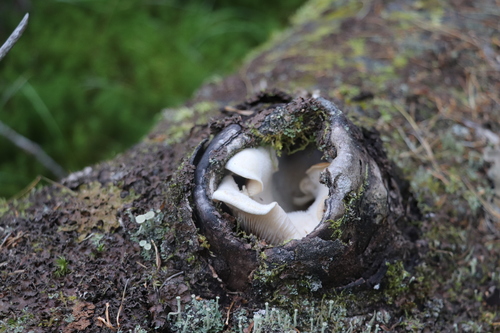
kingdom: Fungi
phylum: Basidiomycota
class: Agaricomycetes
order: Polyporales
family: Polyporaceae
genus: Lentinus
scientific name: Lentinus pilososquamulosus
